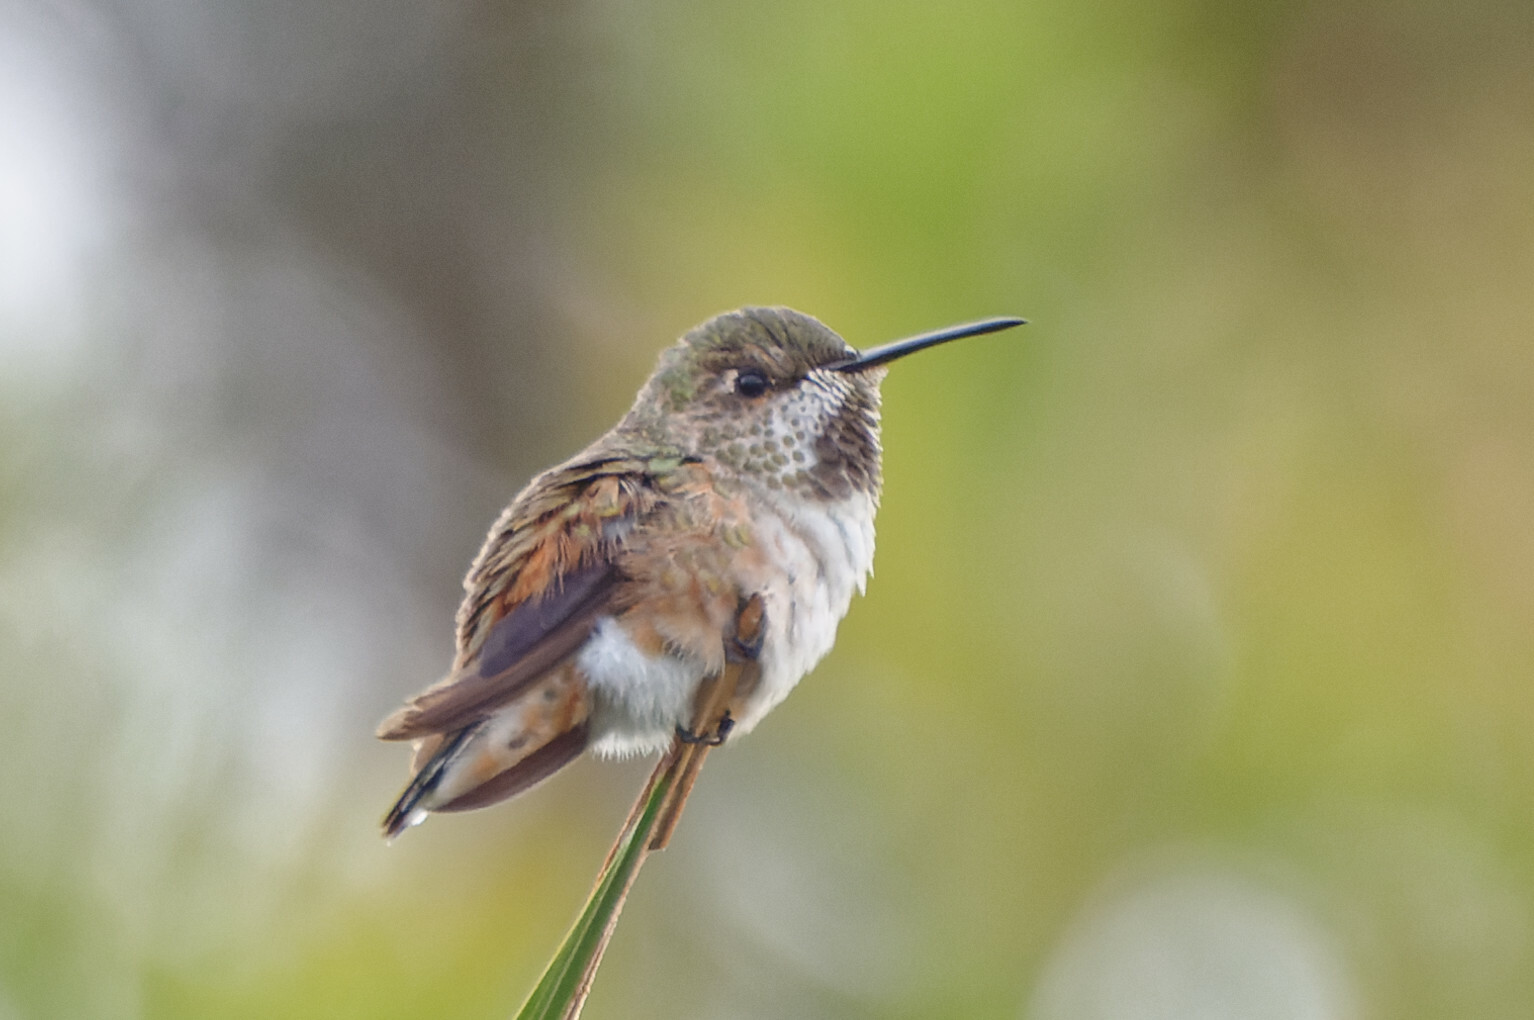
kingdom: Animalia
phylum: Chordata
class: Aves
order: Apodiformes
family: Trochilidae
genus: Selasphorus
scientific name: Selasphorus sasin
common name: Allen's hummingbird
